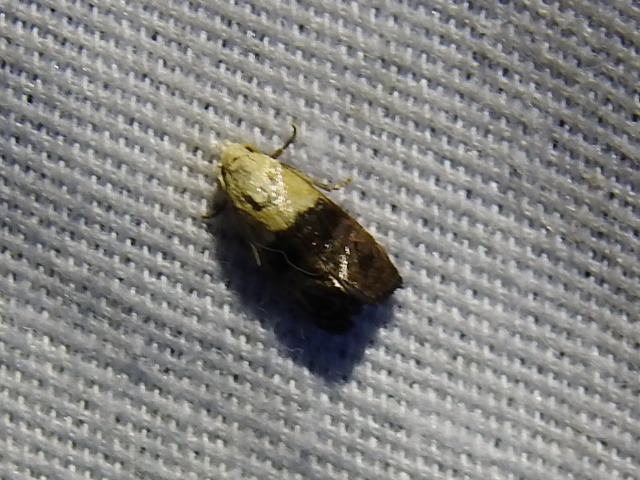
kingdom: Animalia
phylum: Arthropoda
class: Insecta
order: Lepidoptera
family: Tortricidae
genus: Eugnosta
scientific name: Eugnosta erigeronana
